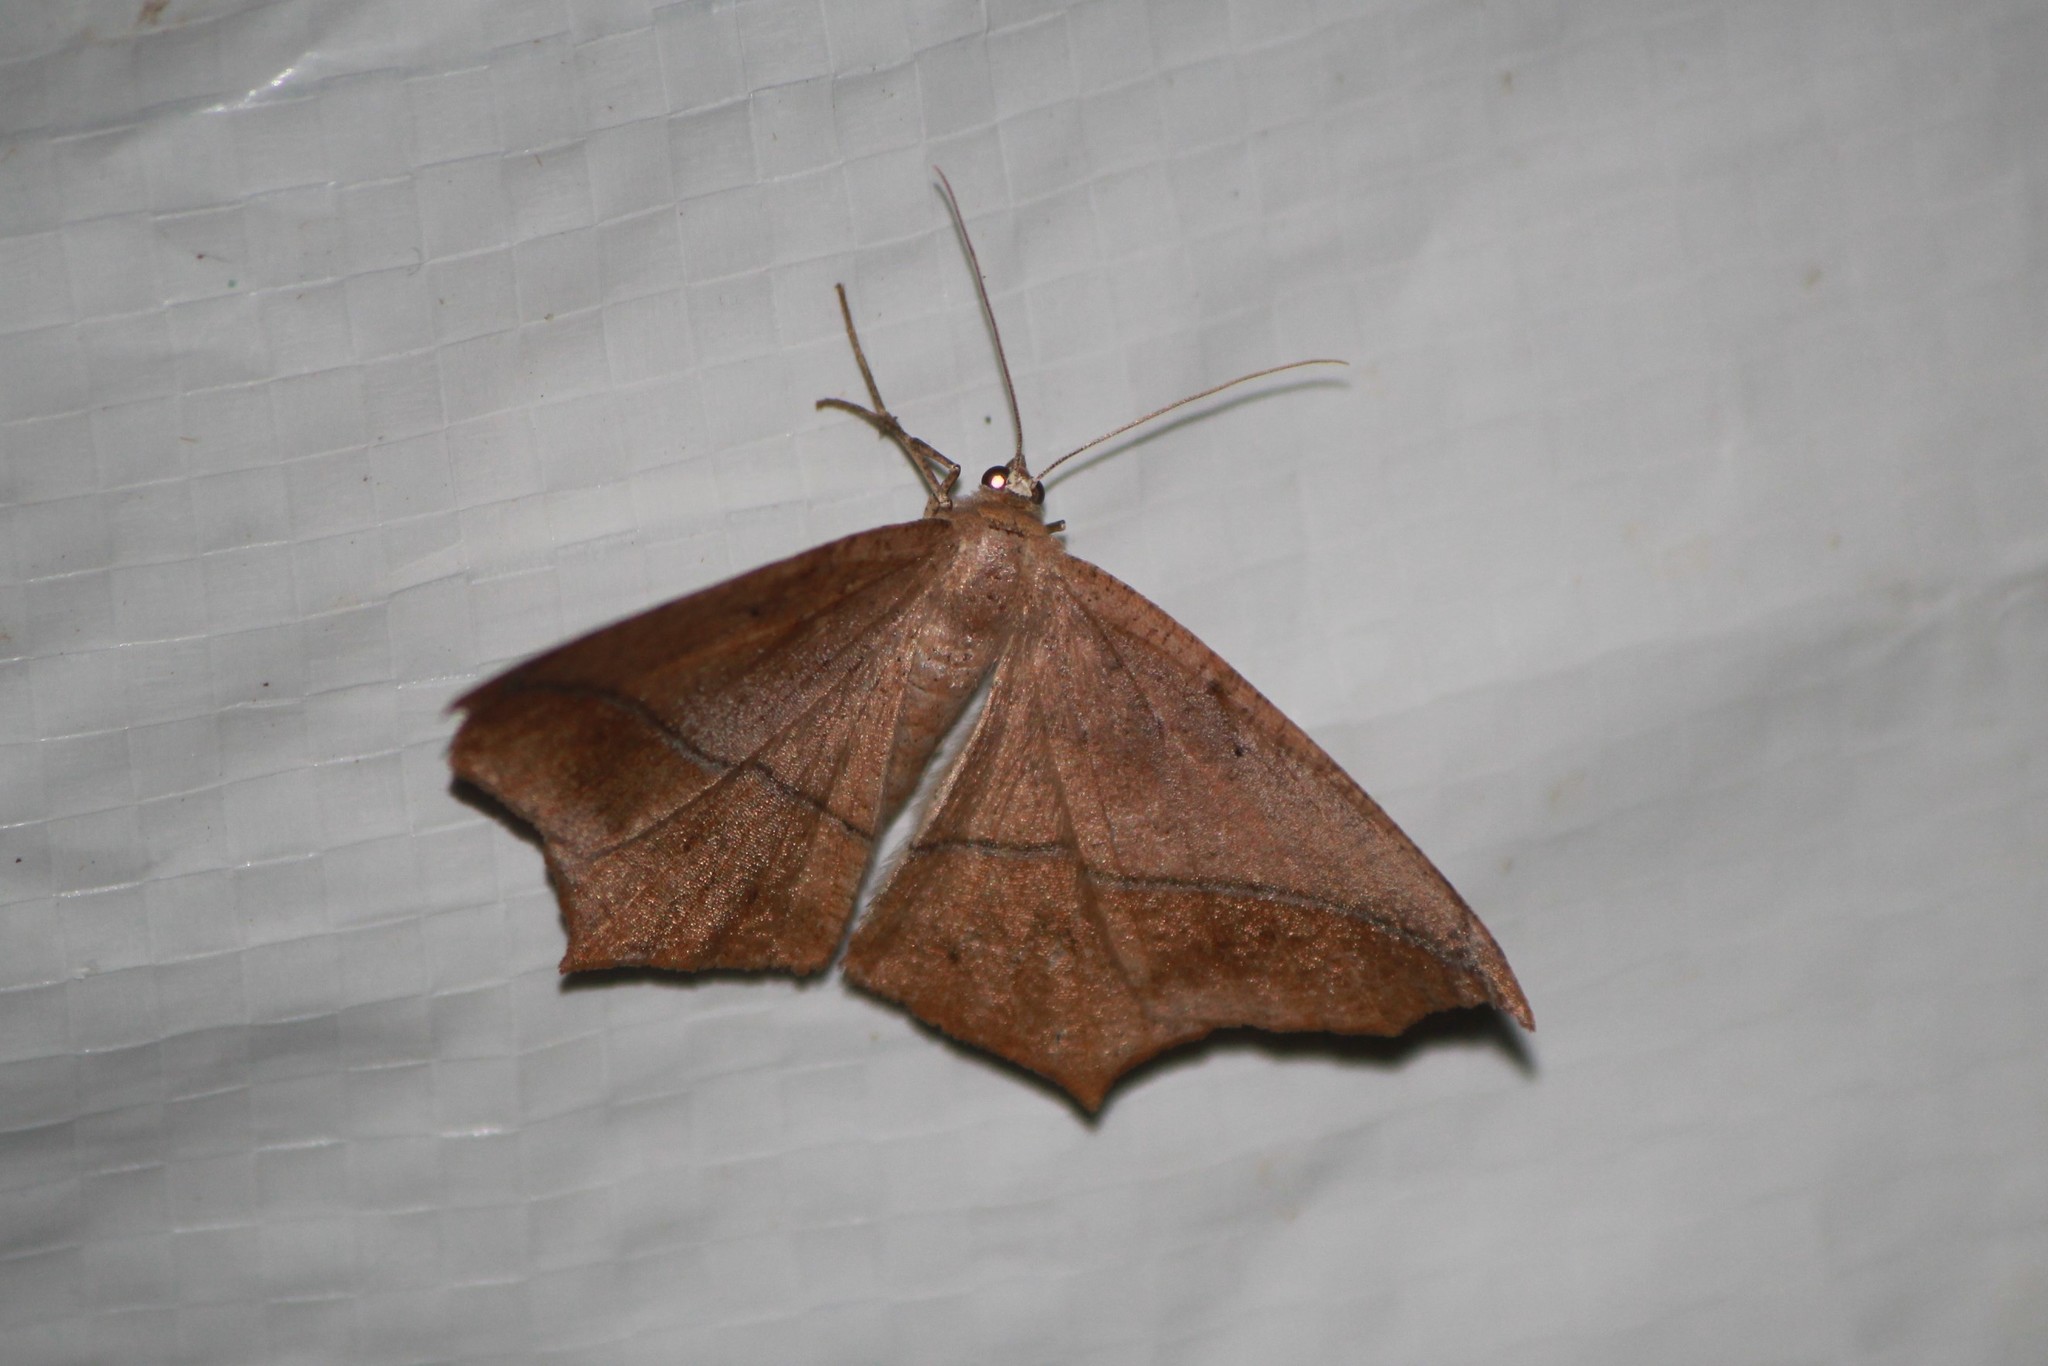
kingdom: Animalia
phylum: Arthropoda
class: Insecta
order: Lepidoptera
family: Geometridae
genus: Prochoerodes
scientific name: Prochoerodes lineola
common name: Large maple spanworm
